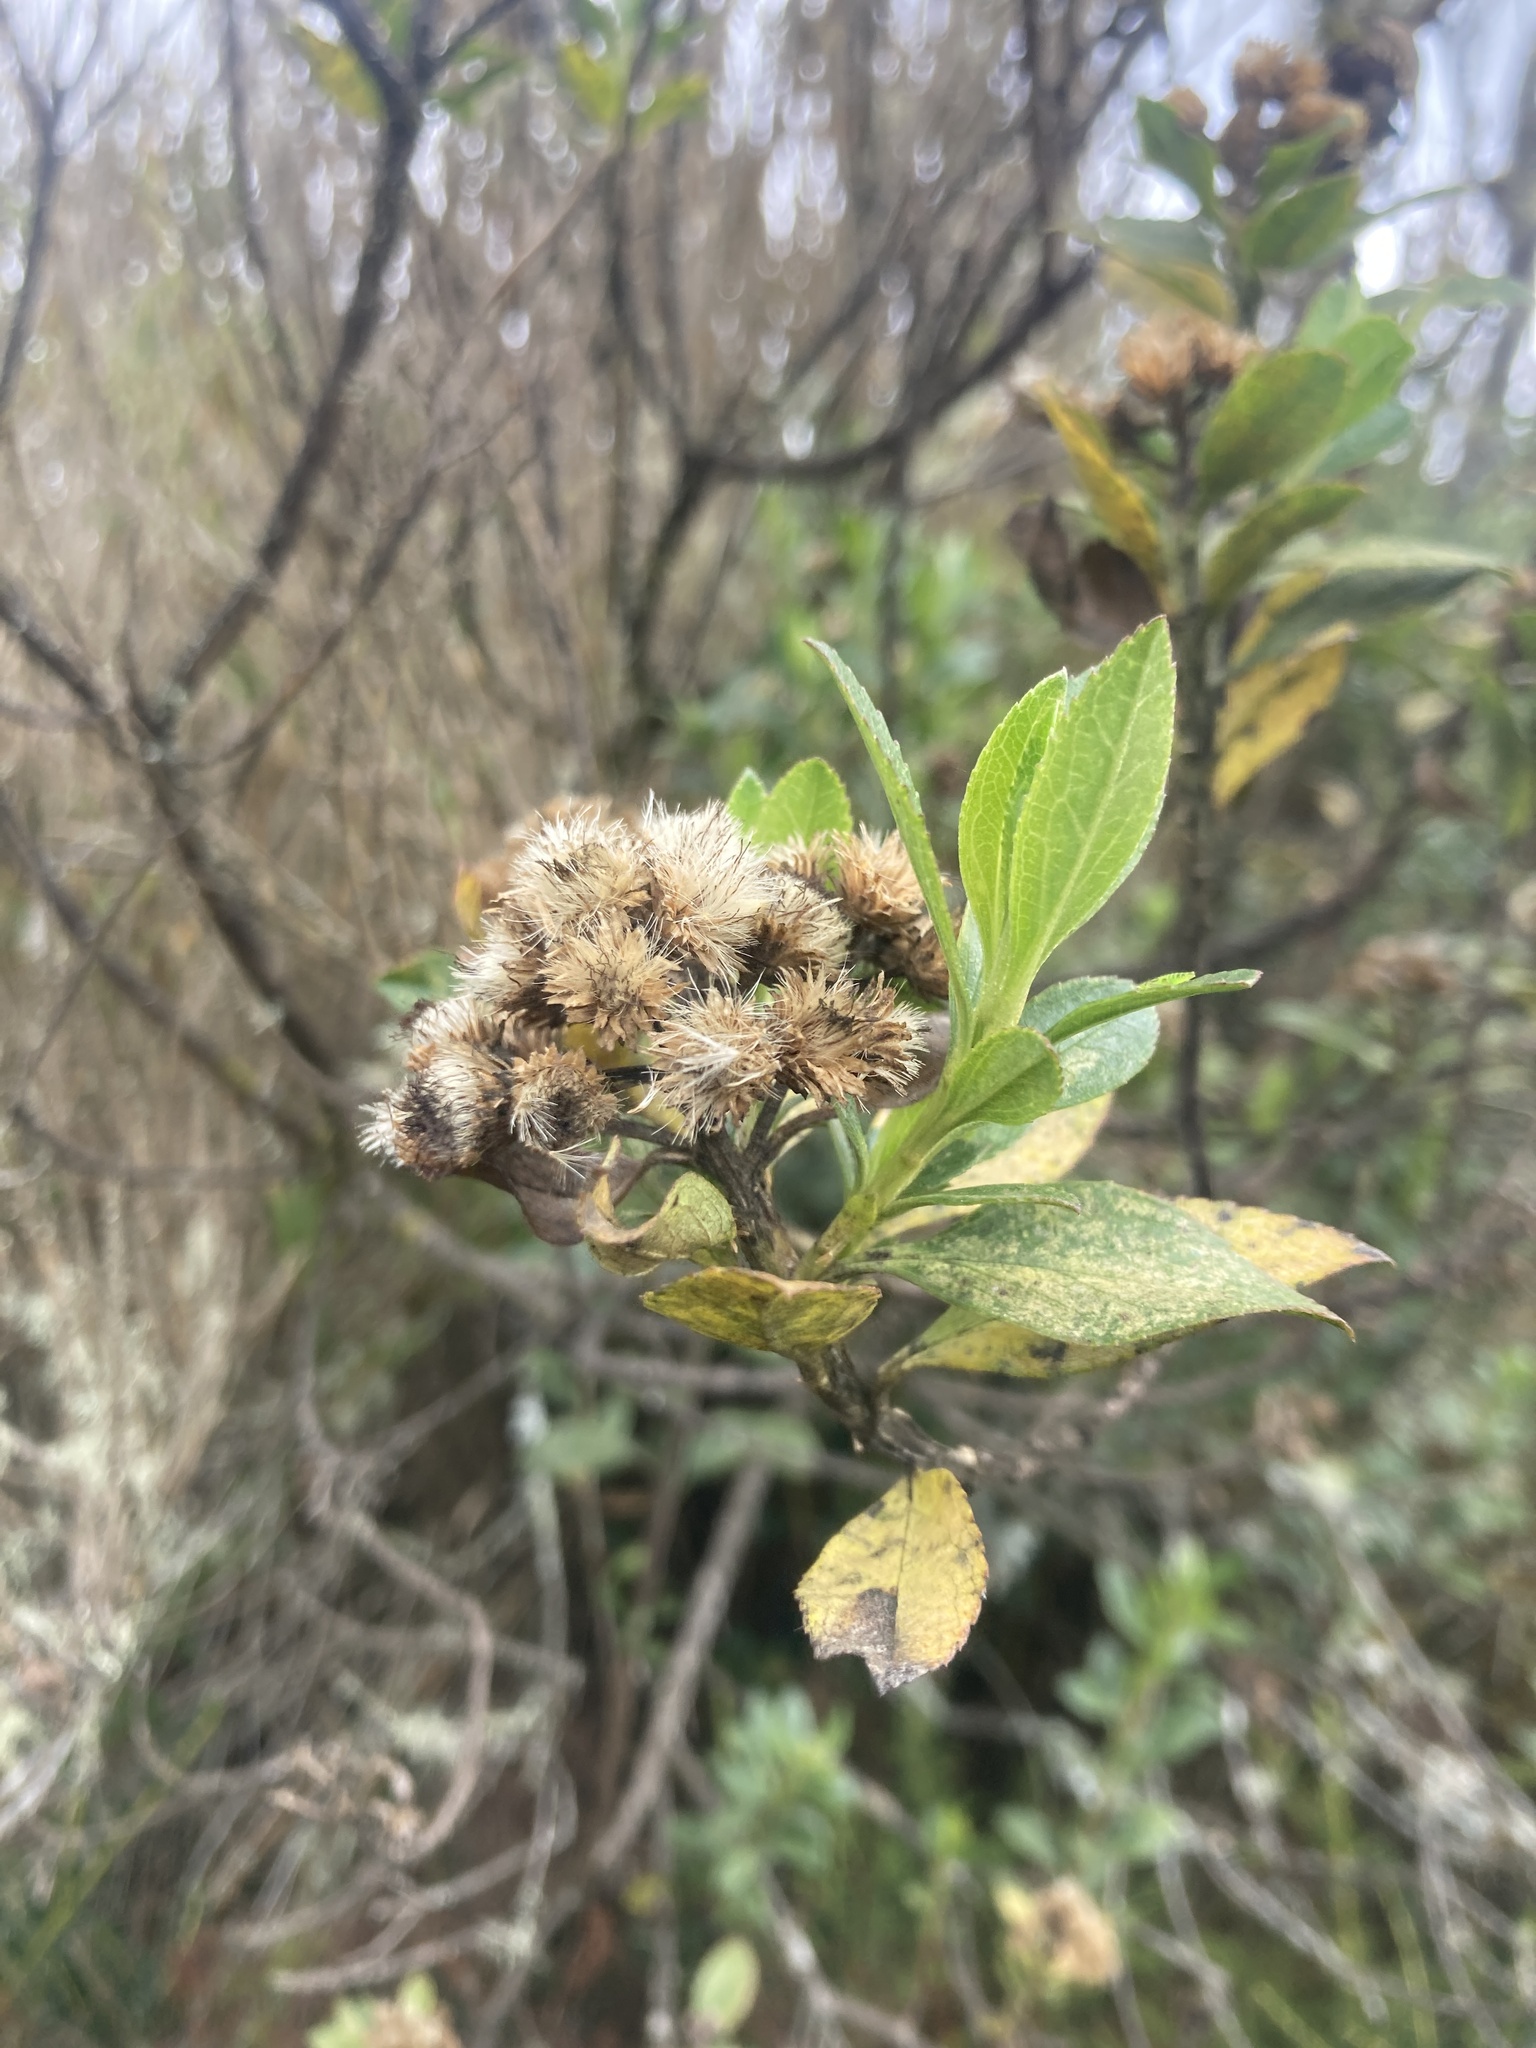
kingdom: Plantae
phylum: Tracheophyta
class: Magnoliopsida
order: Asterales
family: Asteraceae
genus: Baccharis
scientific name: Baccharis prunifolia
